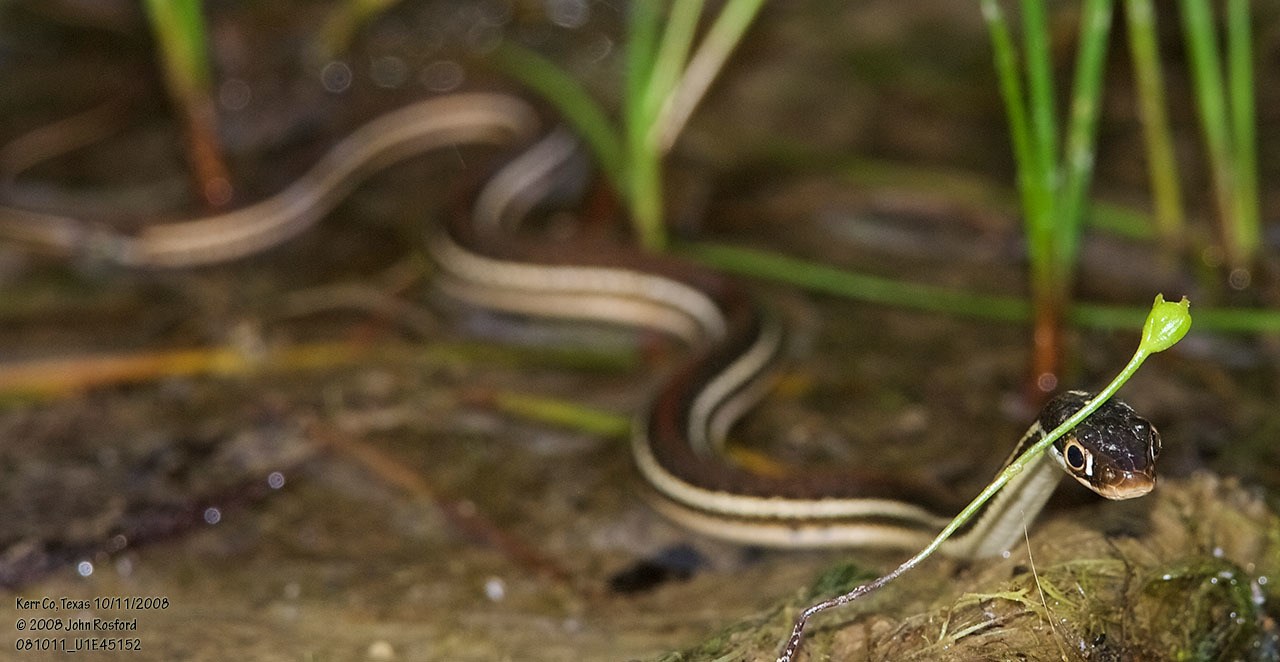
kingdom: Animalia
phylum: Chordata
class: Squamata
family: Colubridae
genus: Thamnophis
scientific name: Thamnophis proximus
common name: Western ribbon snake
